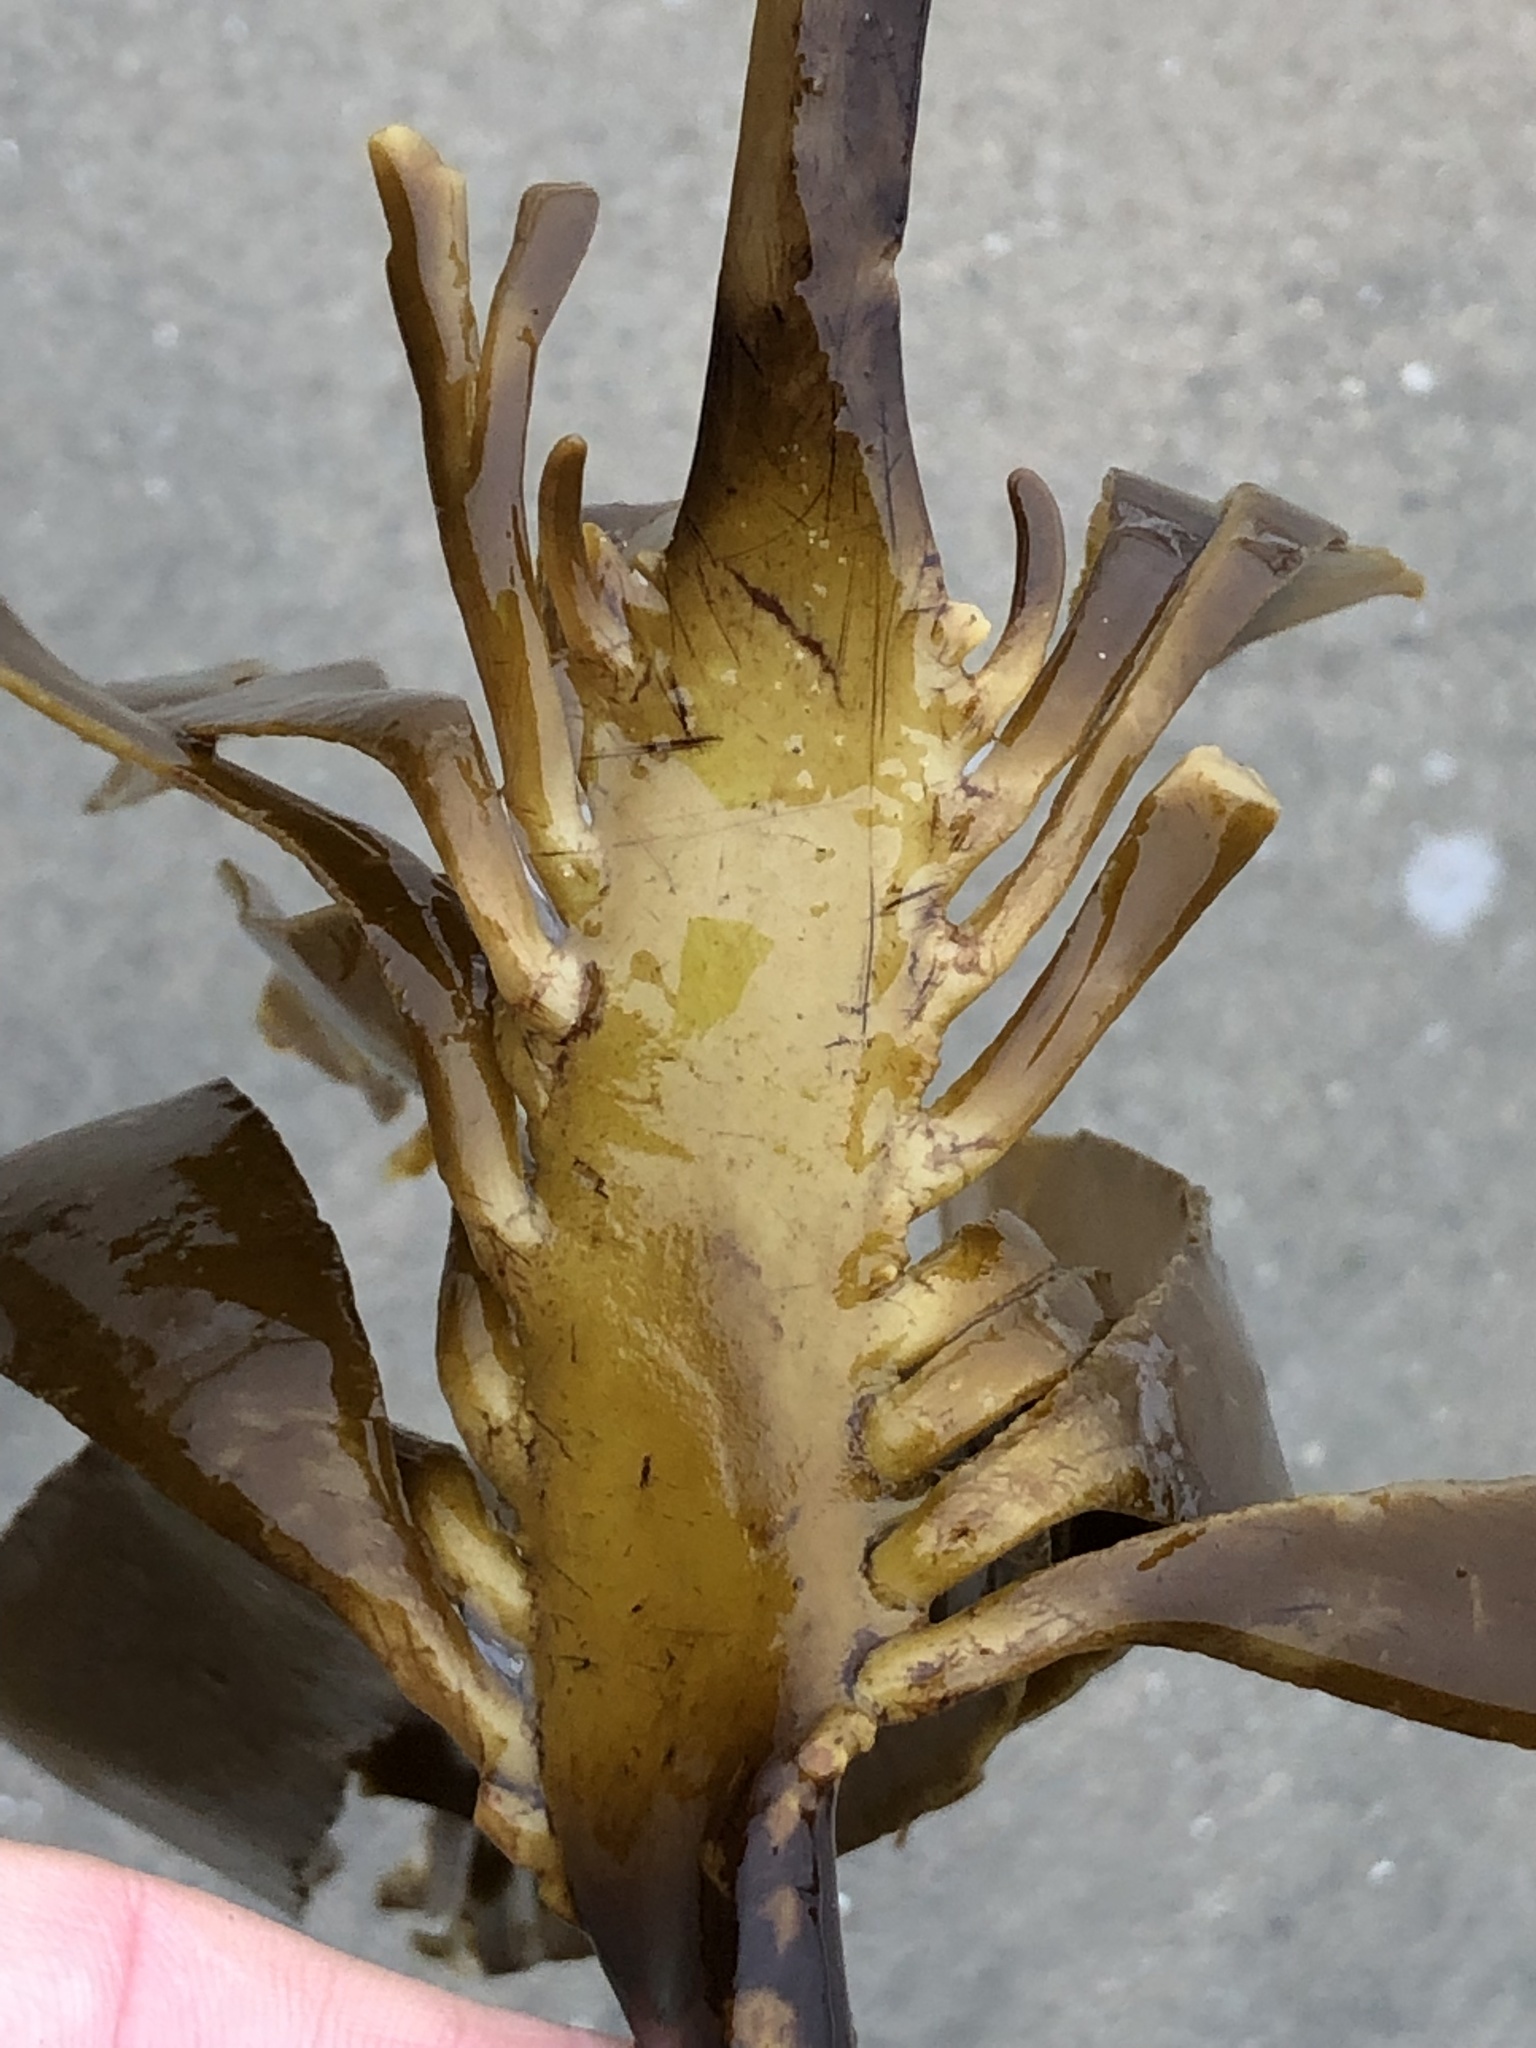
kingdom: Chromista
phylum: Ochrophyta
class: Phaeophyceae
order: Laminariales
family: Alariaceae
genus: Pterygophora
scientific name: Pterygophora californica
